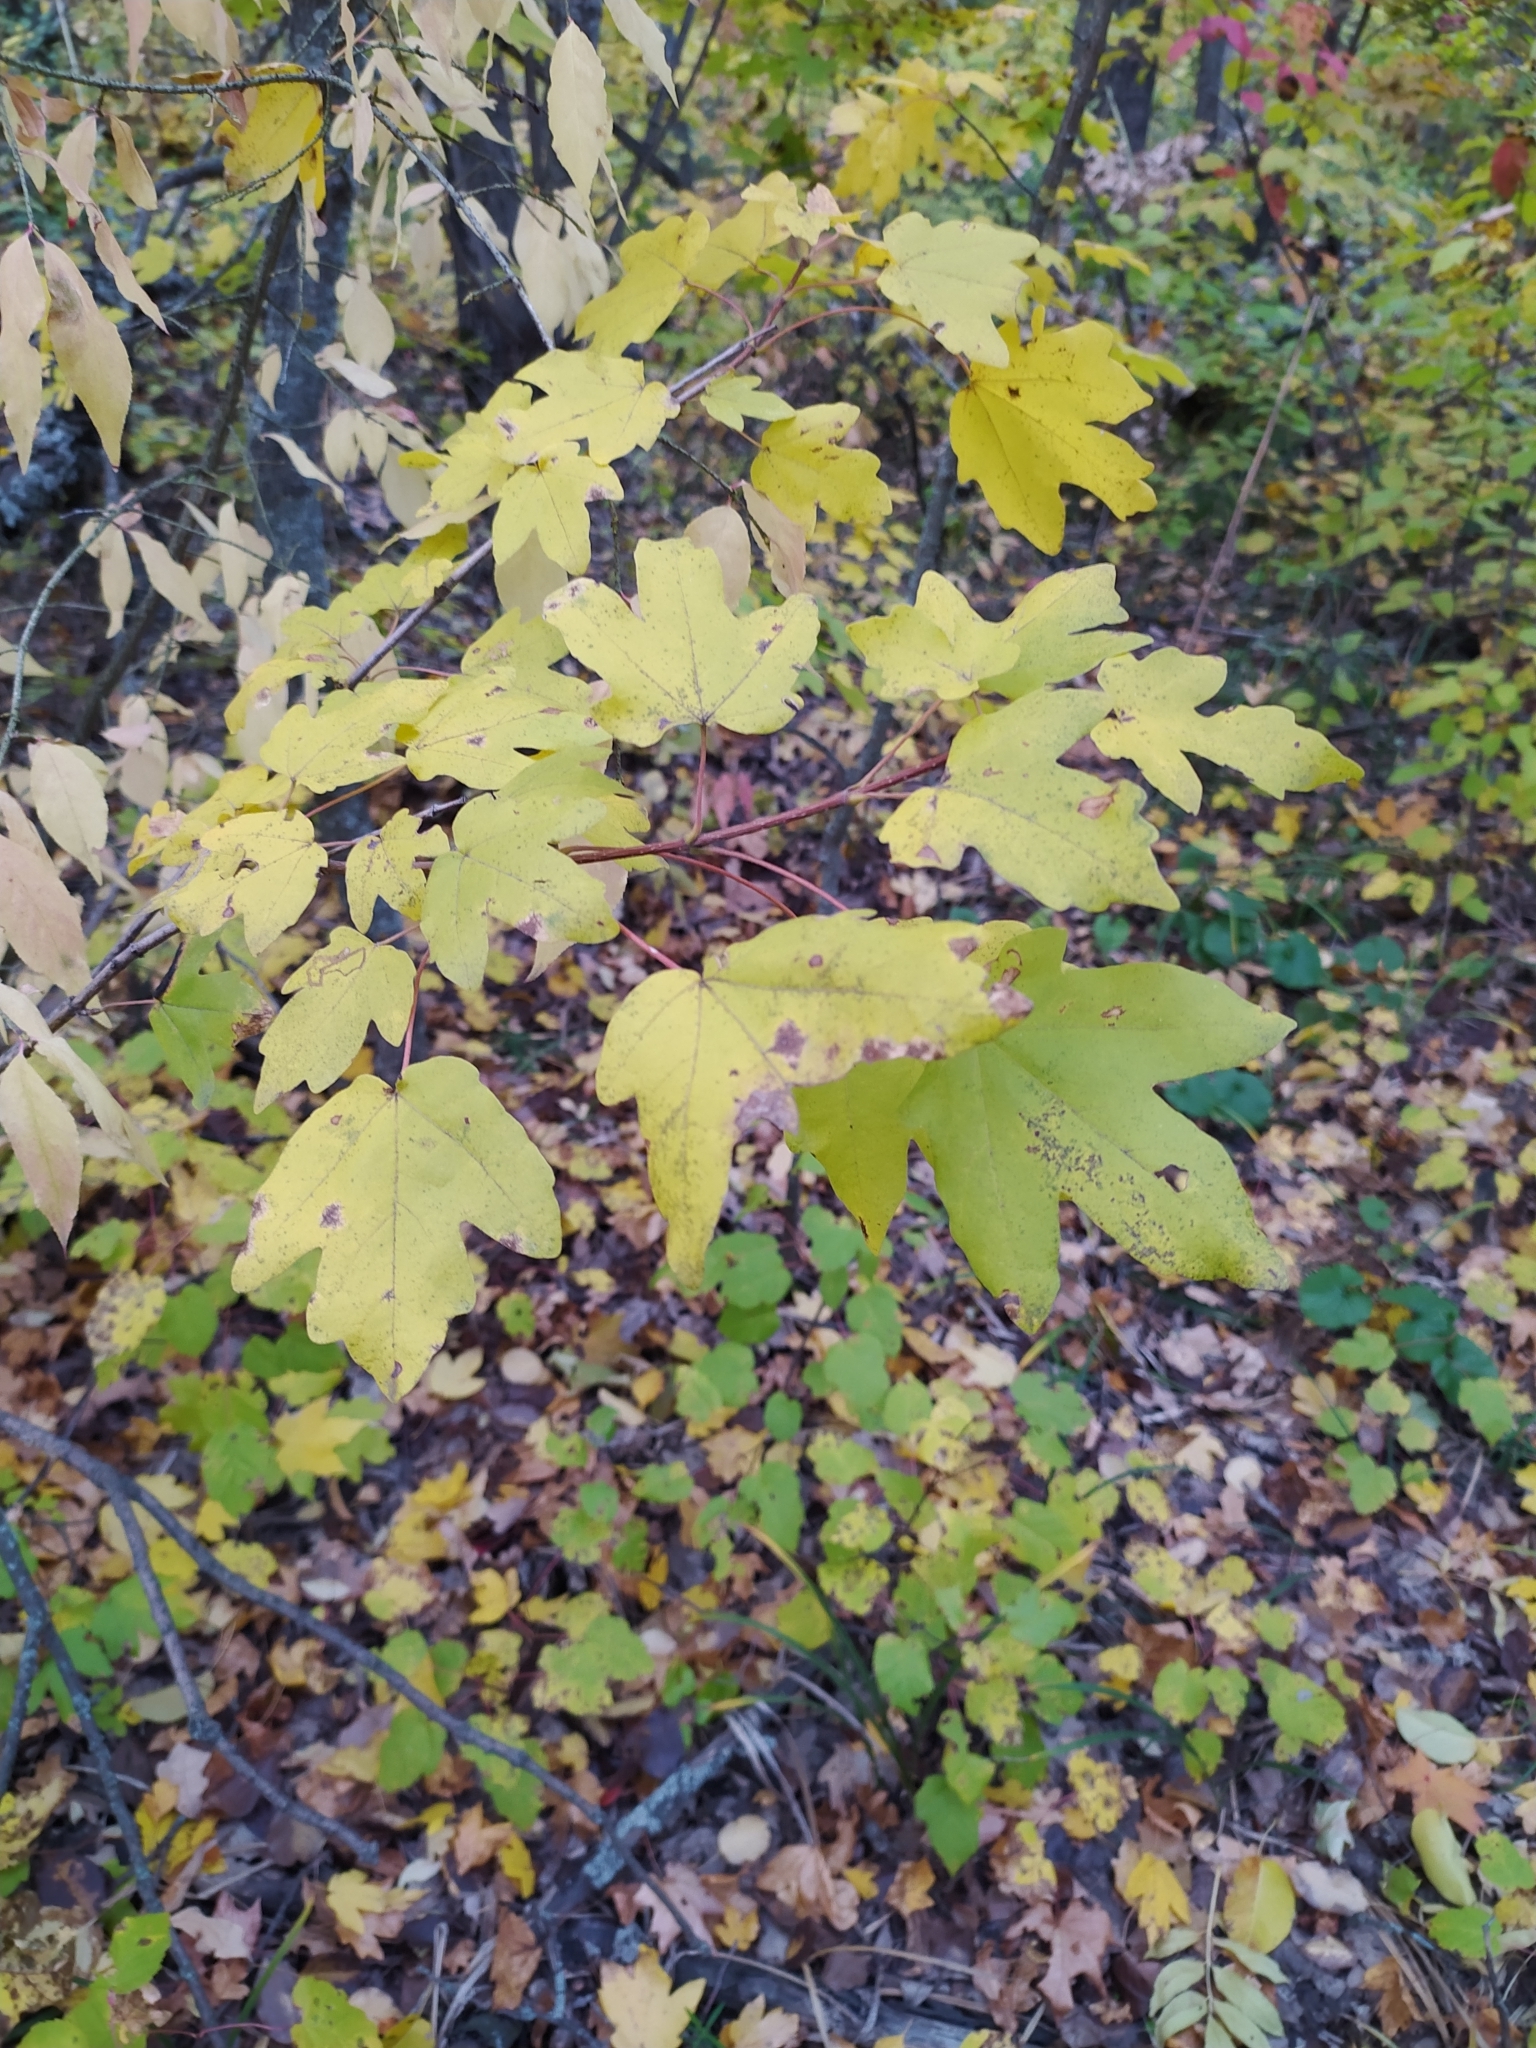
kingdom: Plantae
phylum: Tracheophyta
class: Magnoliopsida
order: Sapindales
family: Sapindaceae
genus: Acer
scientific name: Acer campestre
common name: Field maple
